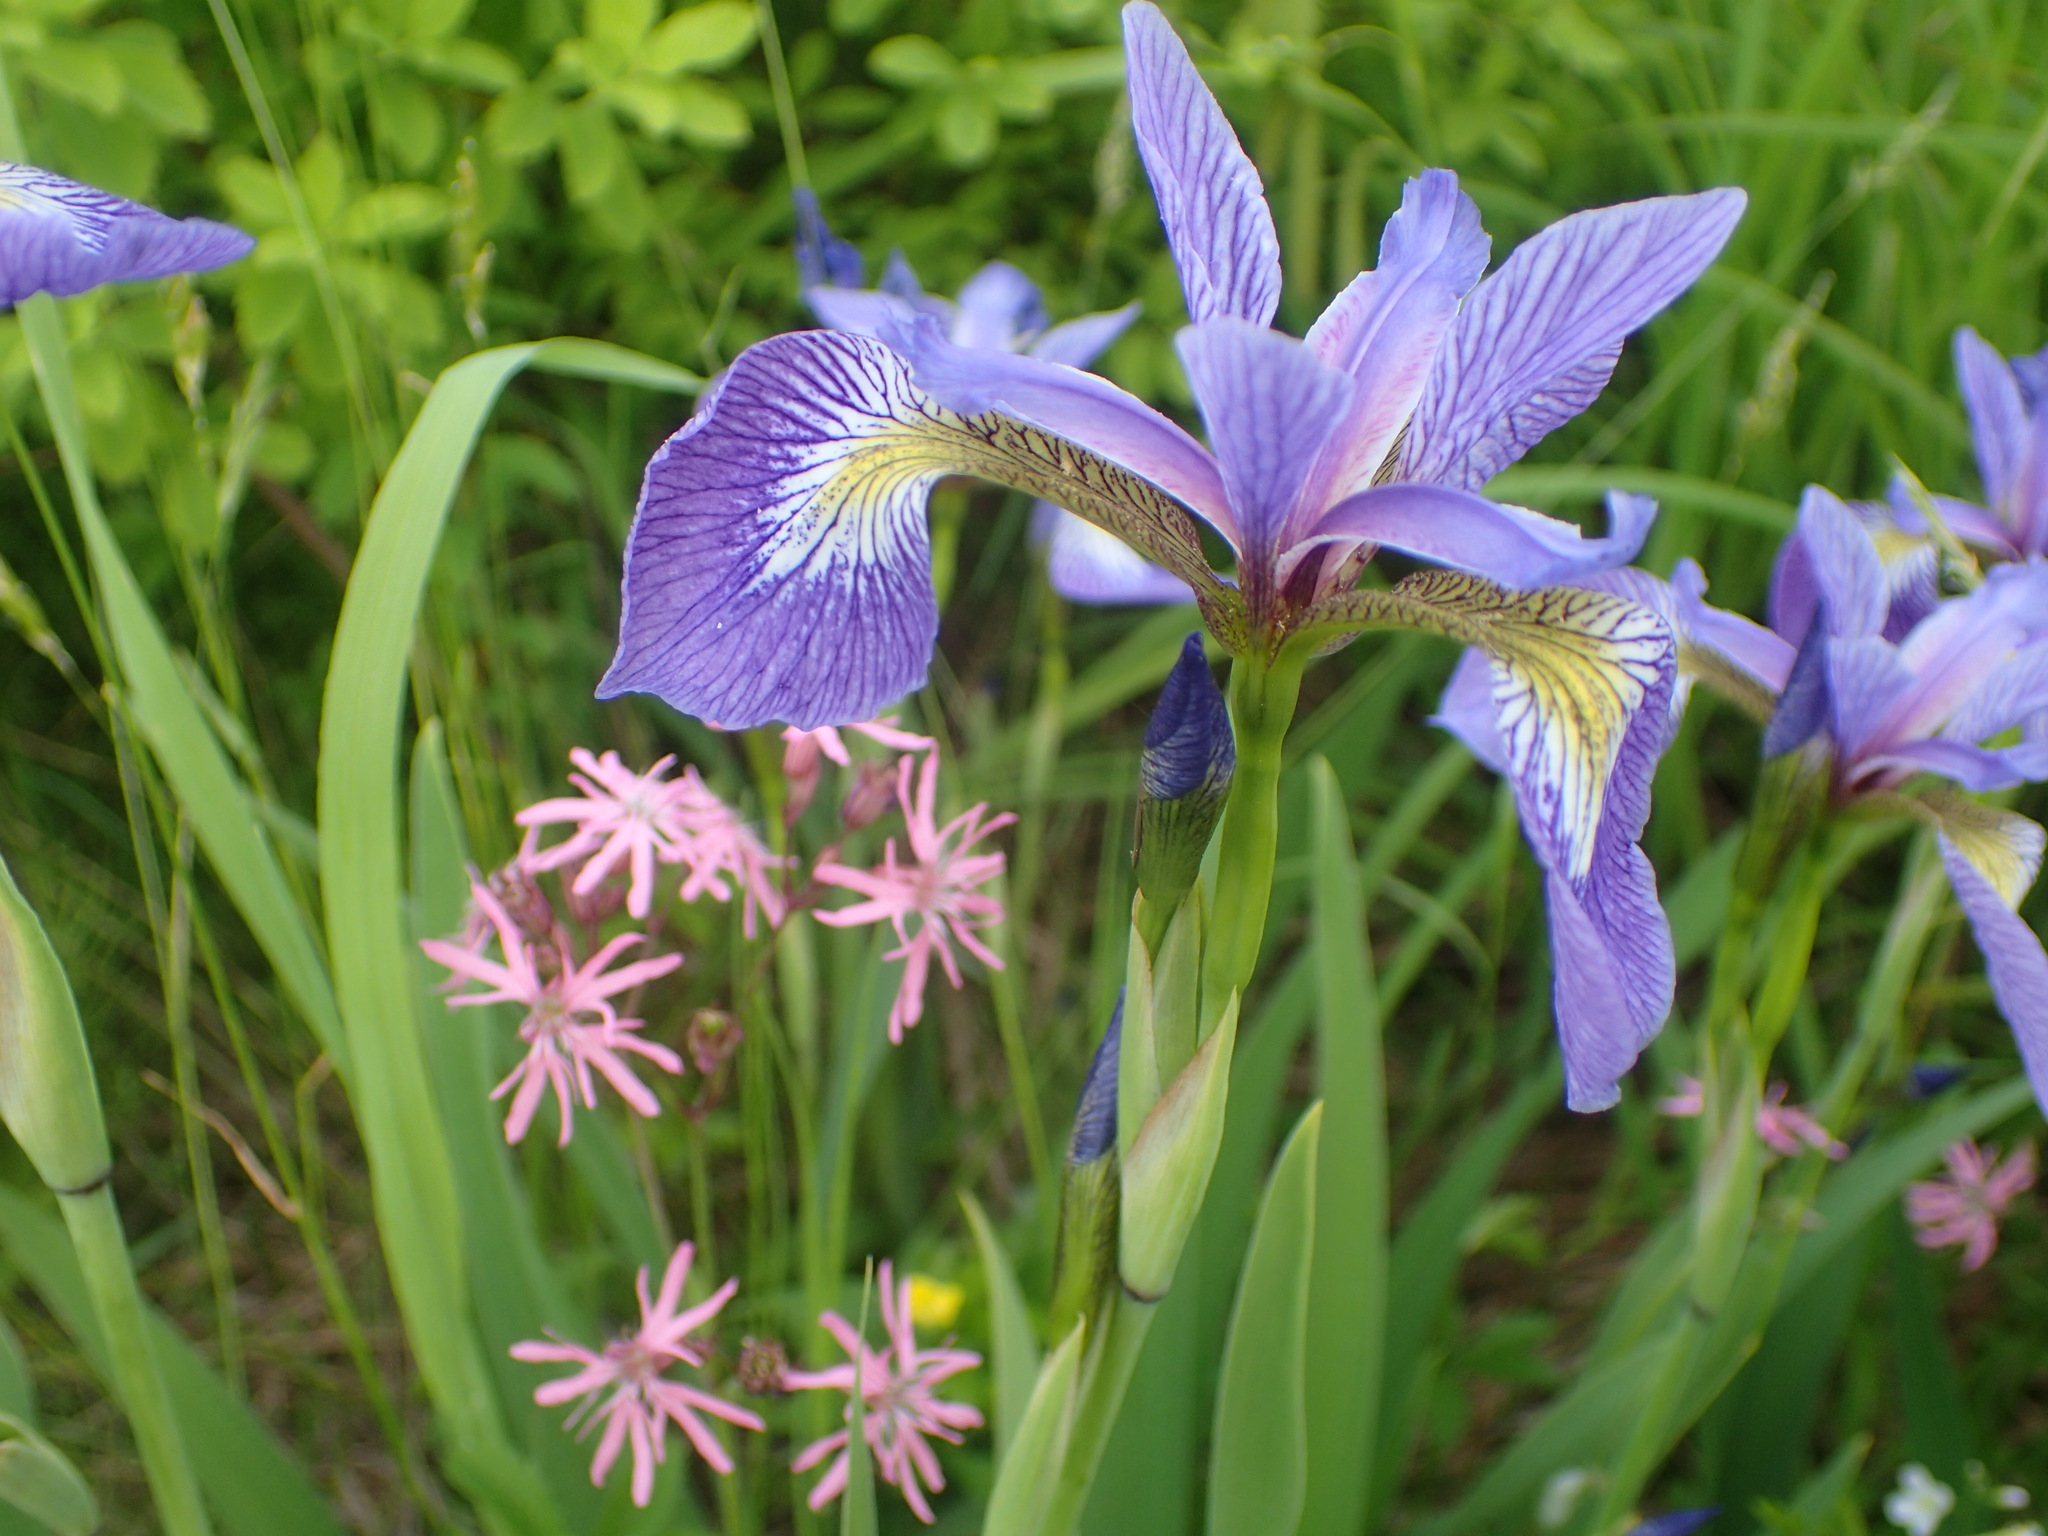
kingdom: Plantae
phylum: Tracheophyta
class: Liliopsida
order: Asparagales
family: Iridaceae
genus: Iris
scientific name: Iris versicolor
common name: Purple iris
